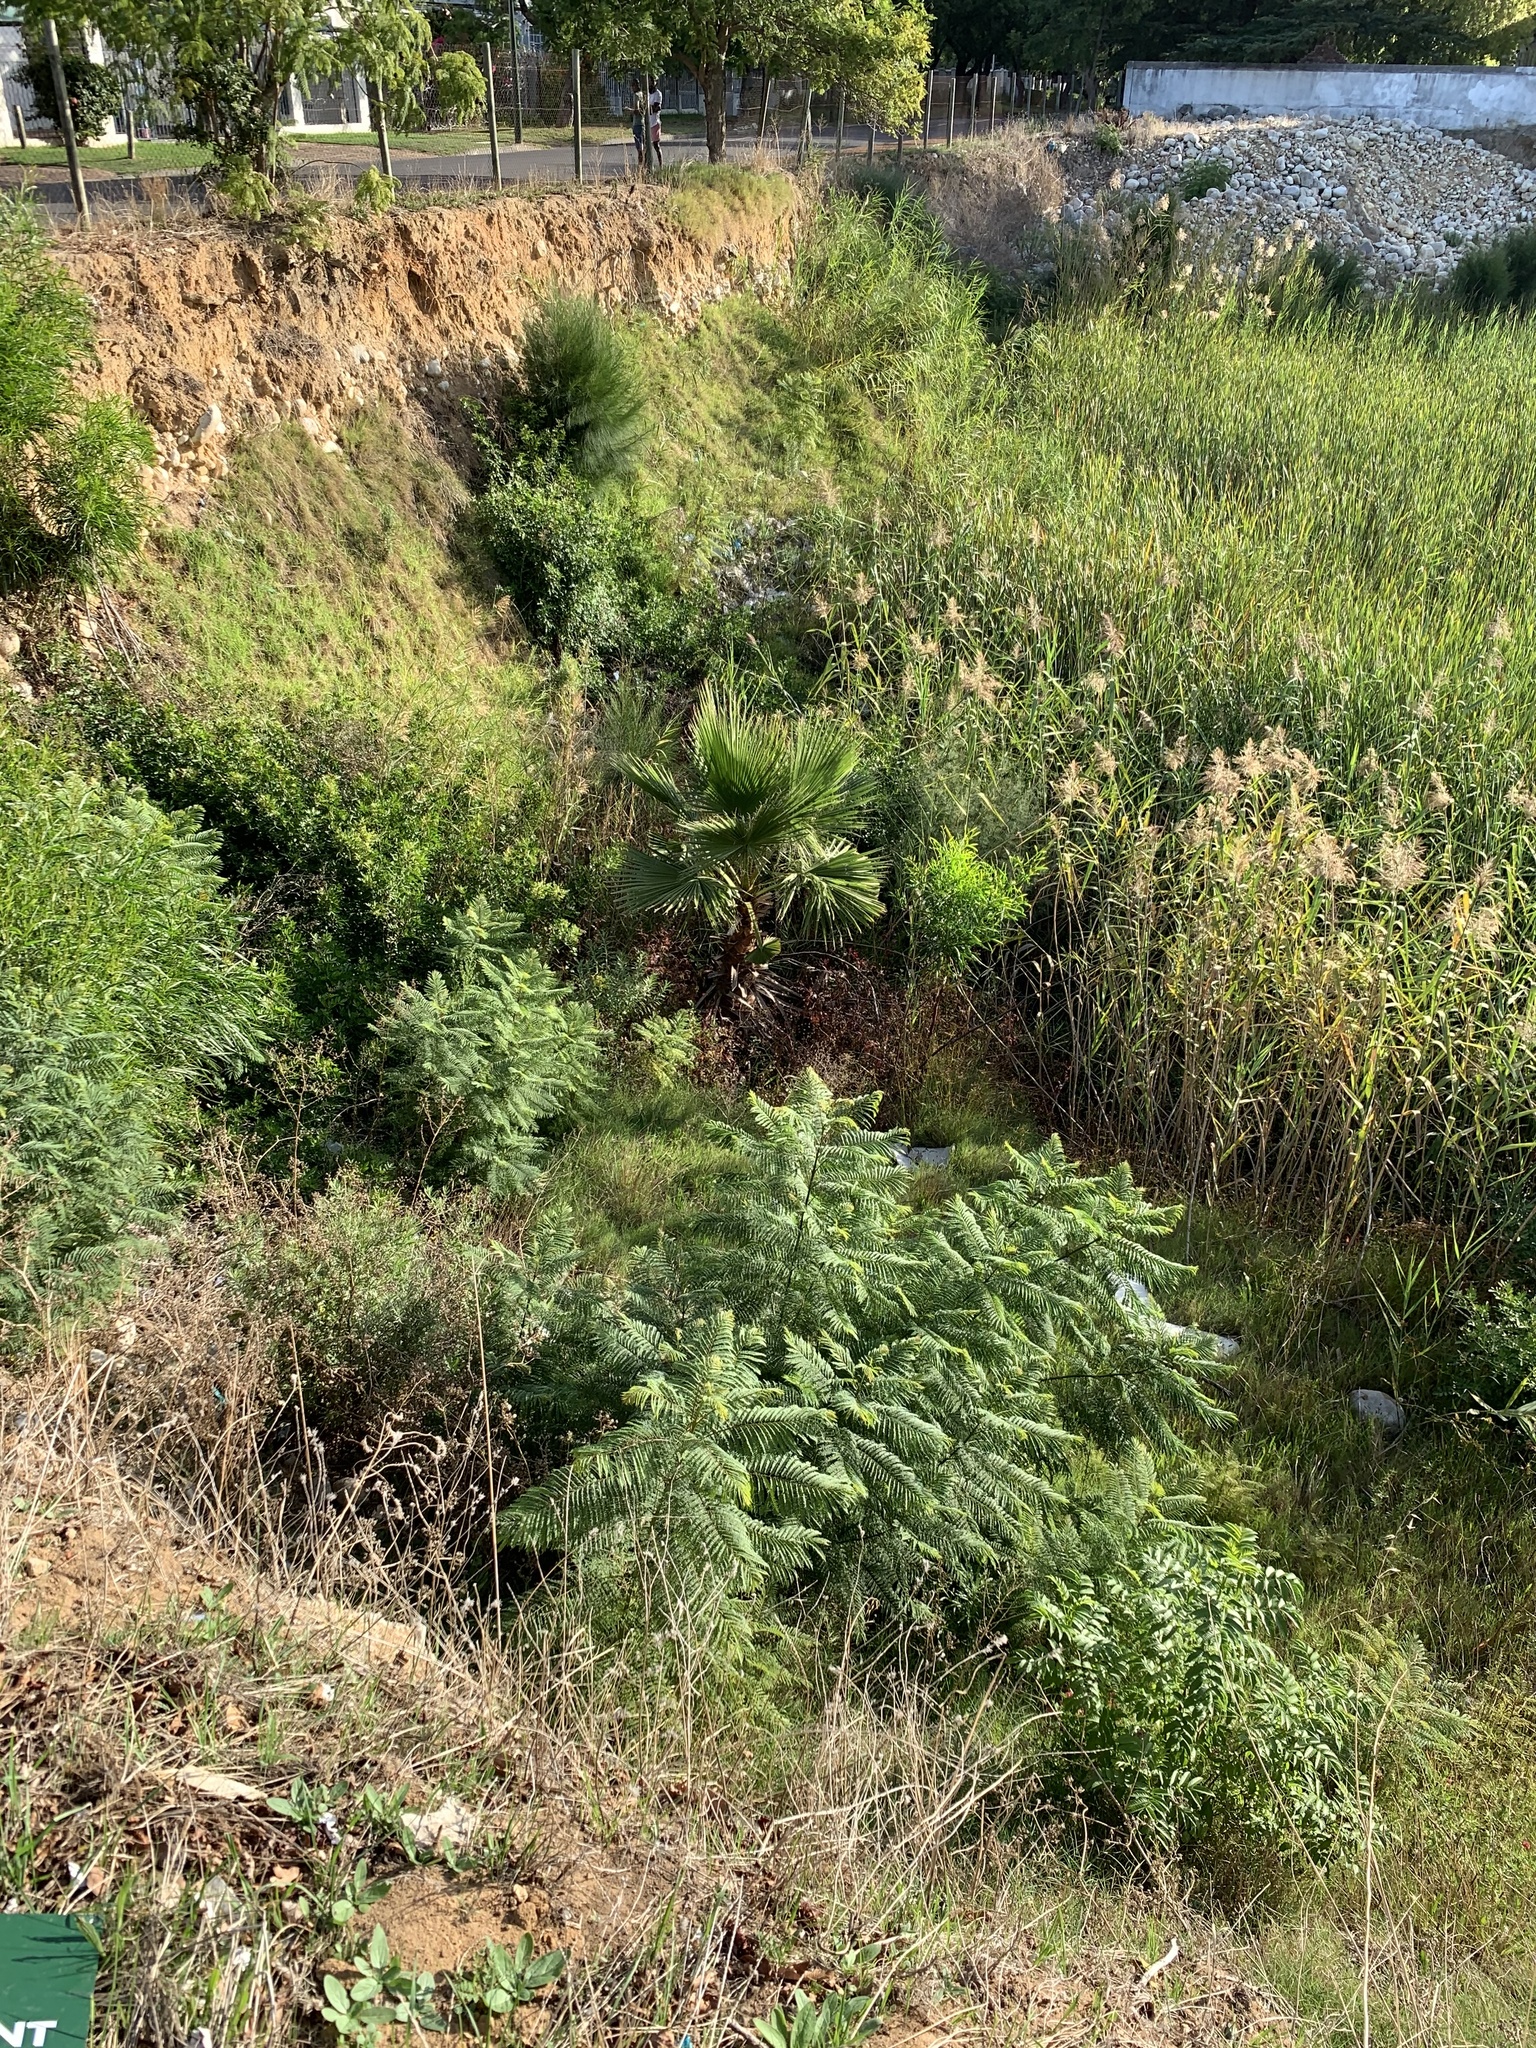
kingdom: Plantae
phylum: Tracheophyta
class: Magnoliopsida
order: Lamiales
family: Bignoniaceae
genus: Jacaranda
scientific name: Jacaranda mimosifolia
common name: Black poui
